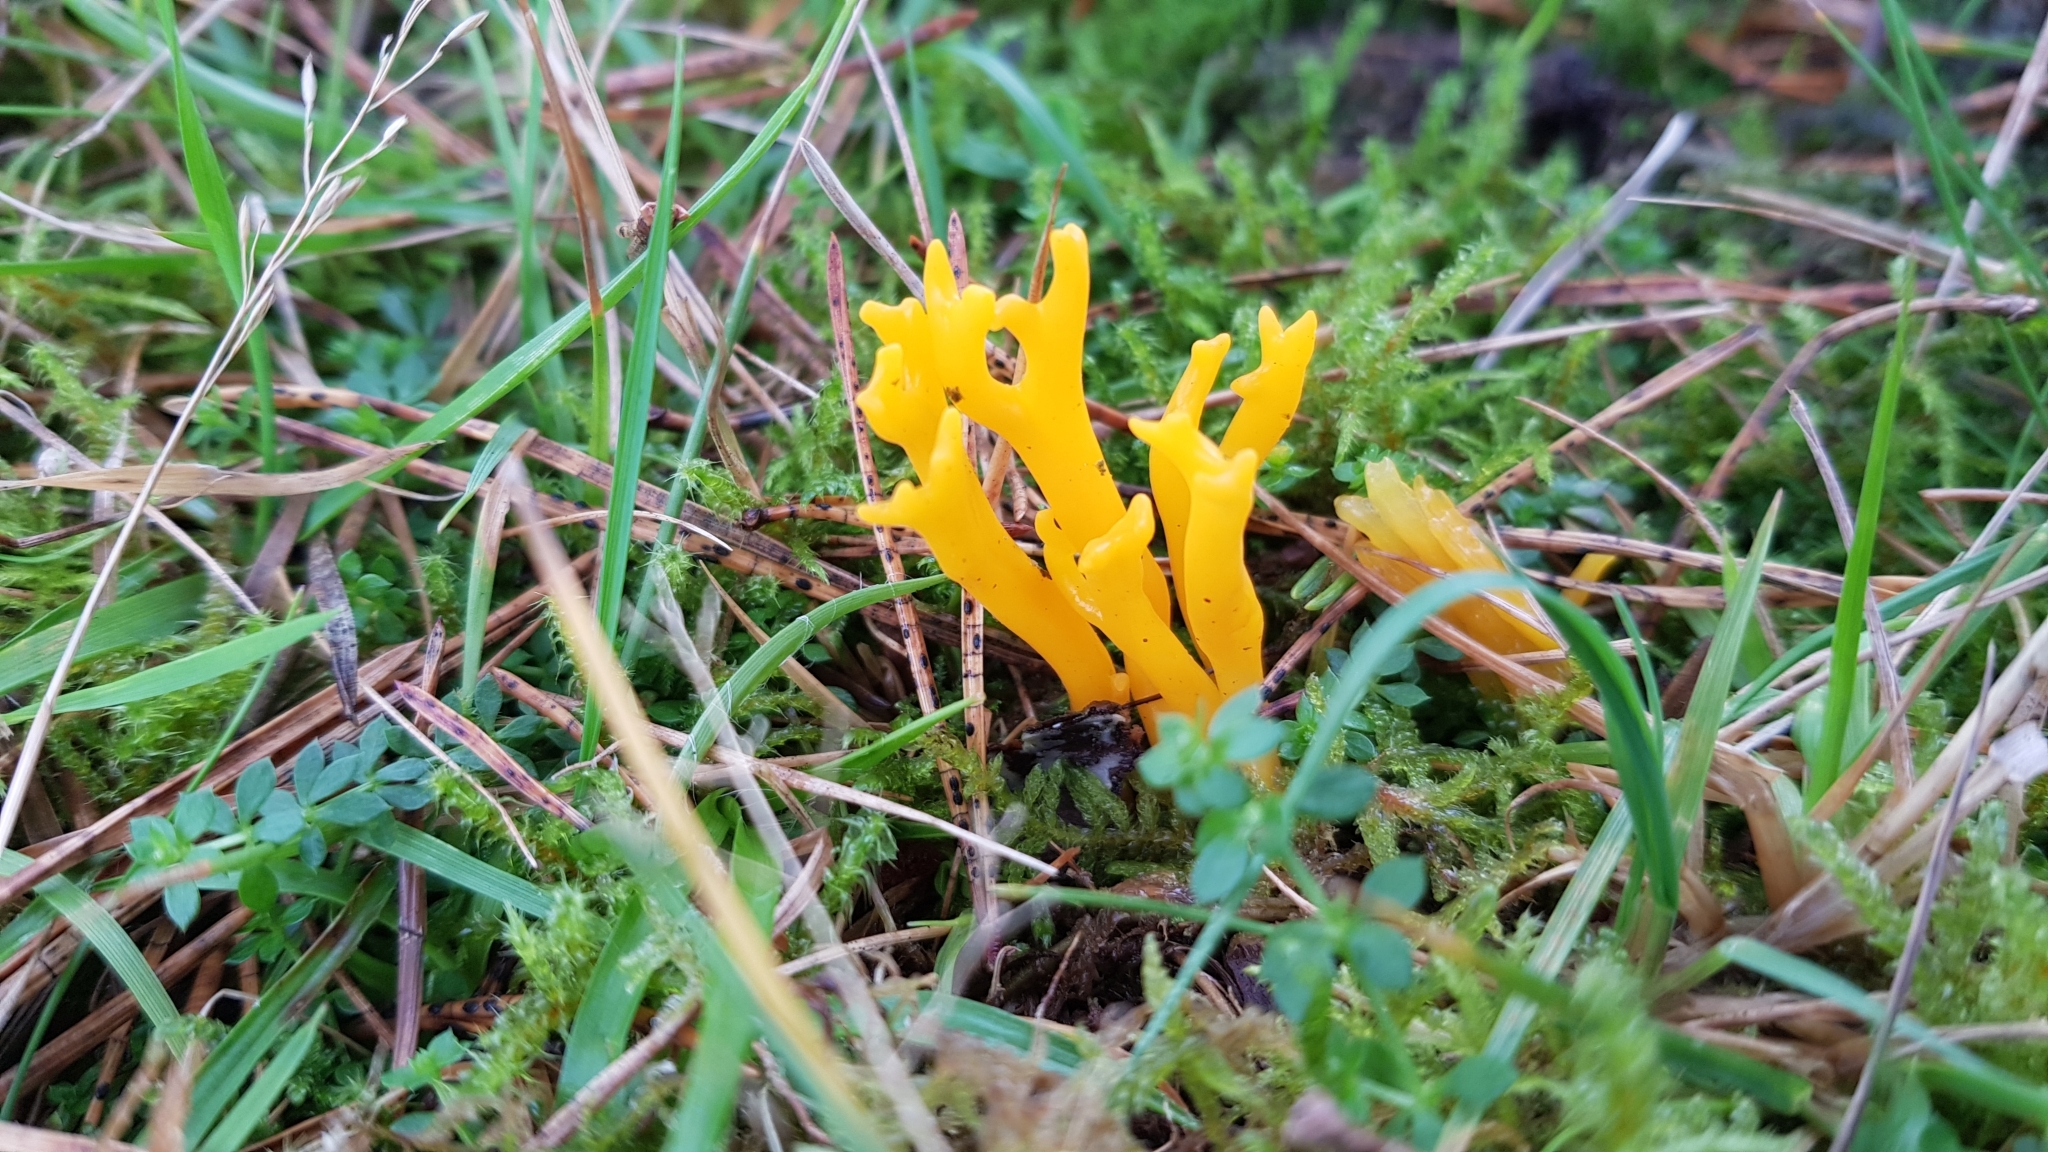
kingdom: Fungi
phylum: Basidiomycota
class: Dacrymycetes
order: Dacrymycetales
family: Dacrymycetaceae
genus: Calocera
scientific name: Calocera viscosa
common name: Yellow stagshorn
